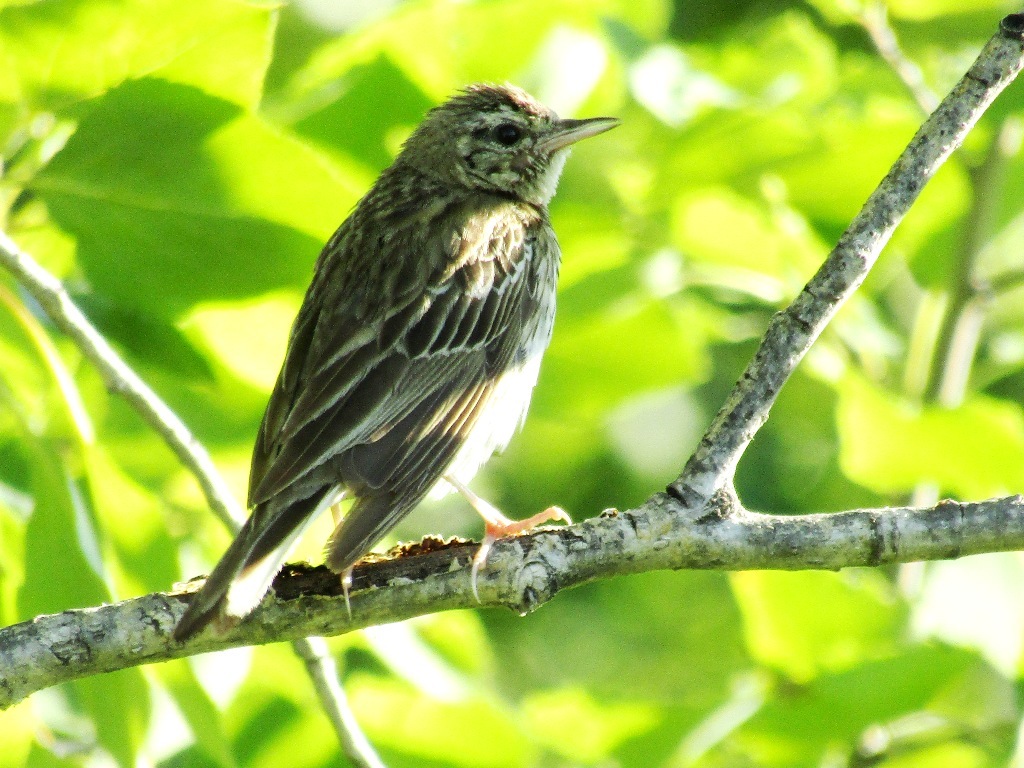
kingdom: Animalia
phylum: Chordata
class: Aves
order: Passeriformes
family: Motacillidae
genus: Anthus
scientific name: Anthus trivialis
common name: Tree pipit
